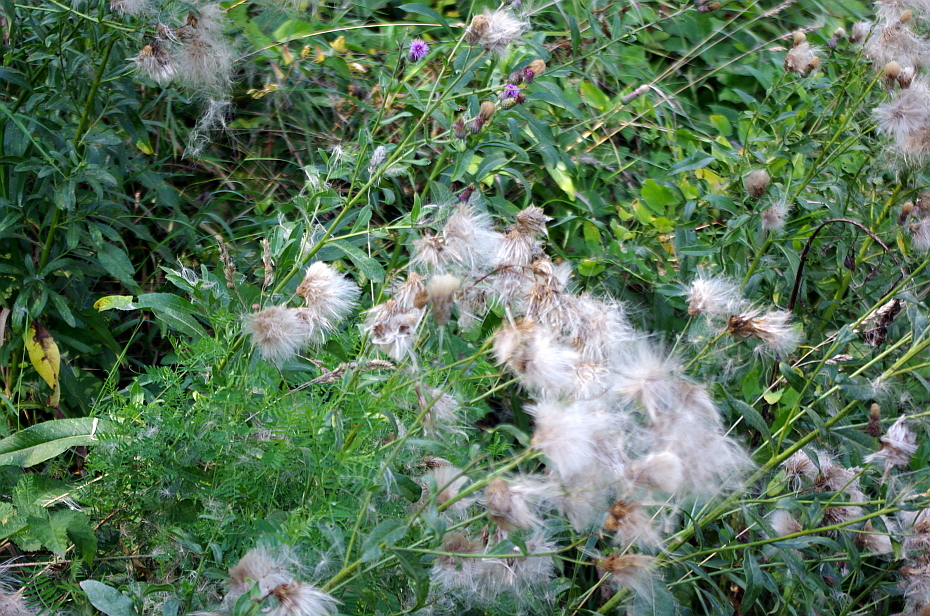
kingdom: Plantae
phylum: Tracheophyta
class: Magnoliopsida
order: Asterales
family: Asteraceae
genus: Cirsium
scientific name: Cirsium arvense
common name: Creeping thistle
